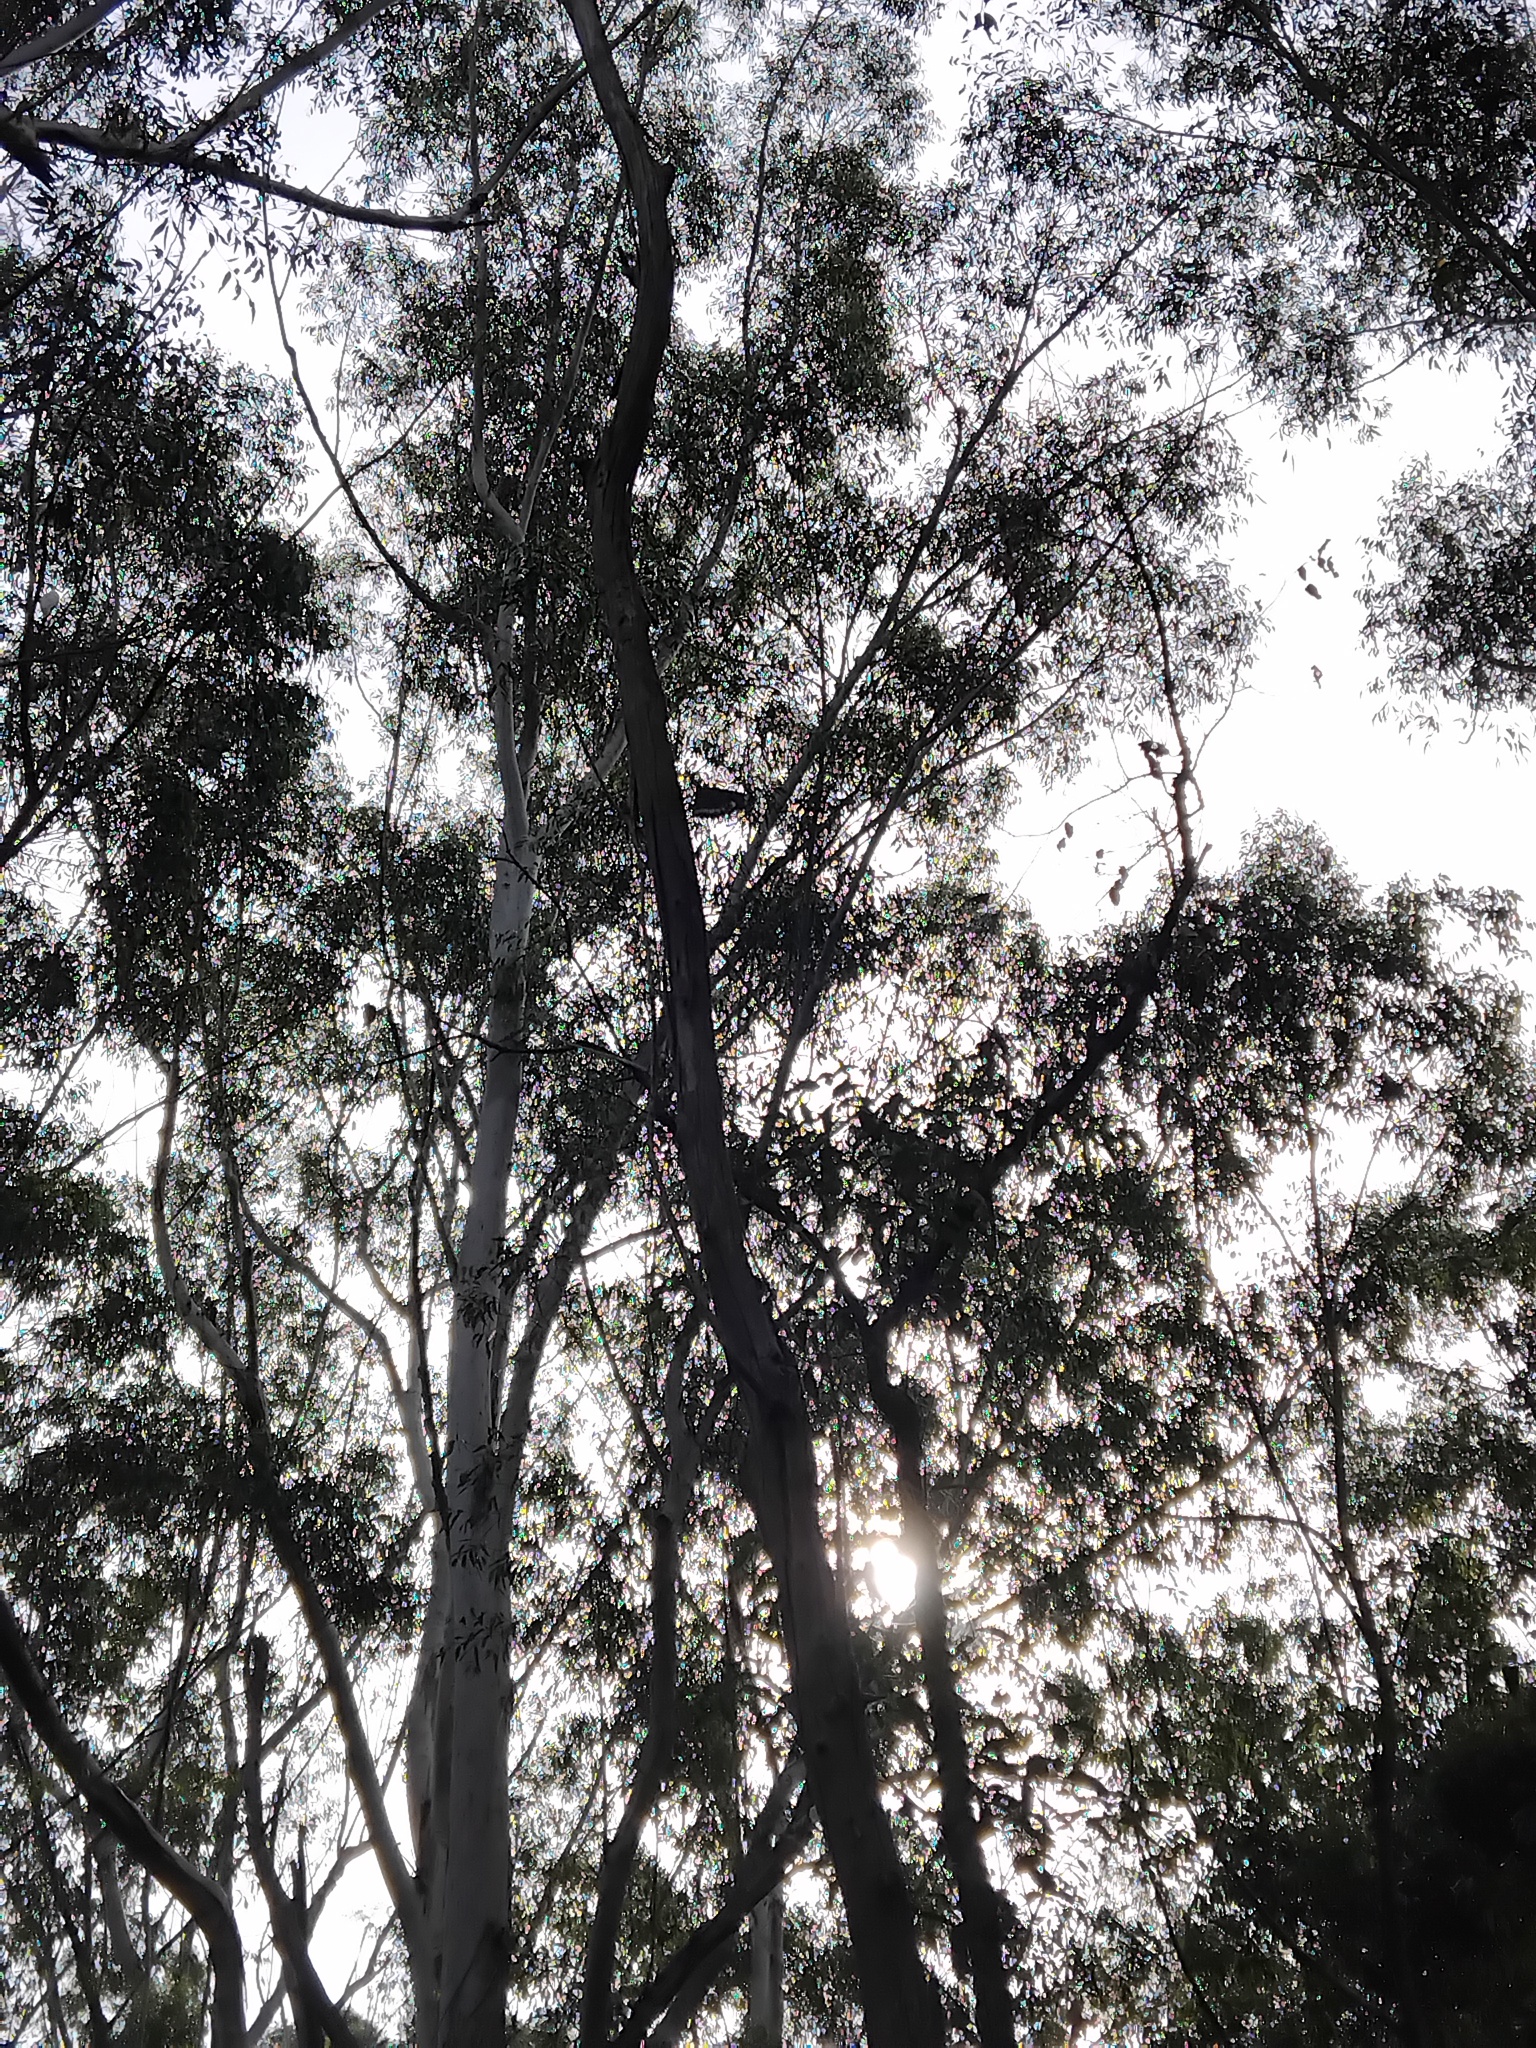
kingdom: Animalia
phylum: Arthropoda
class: Insecta
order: Lepidoptera
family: Nymphalidae
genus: Euploea
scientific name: Euploea core
